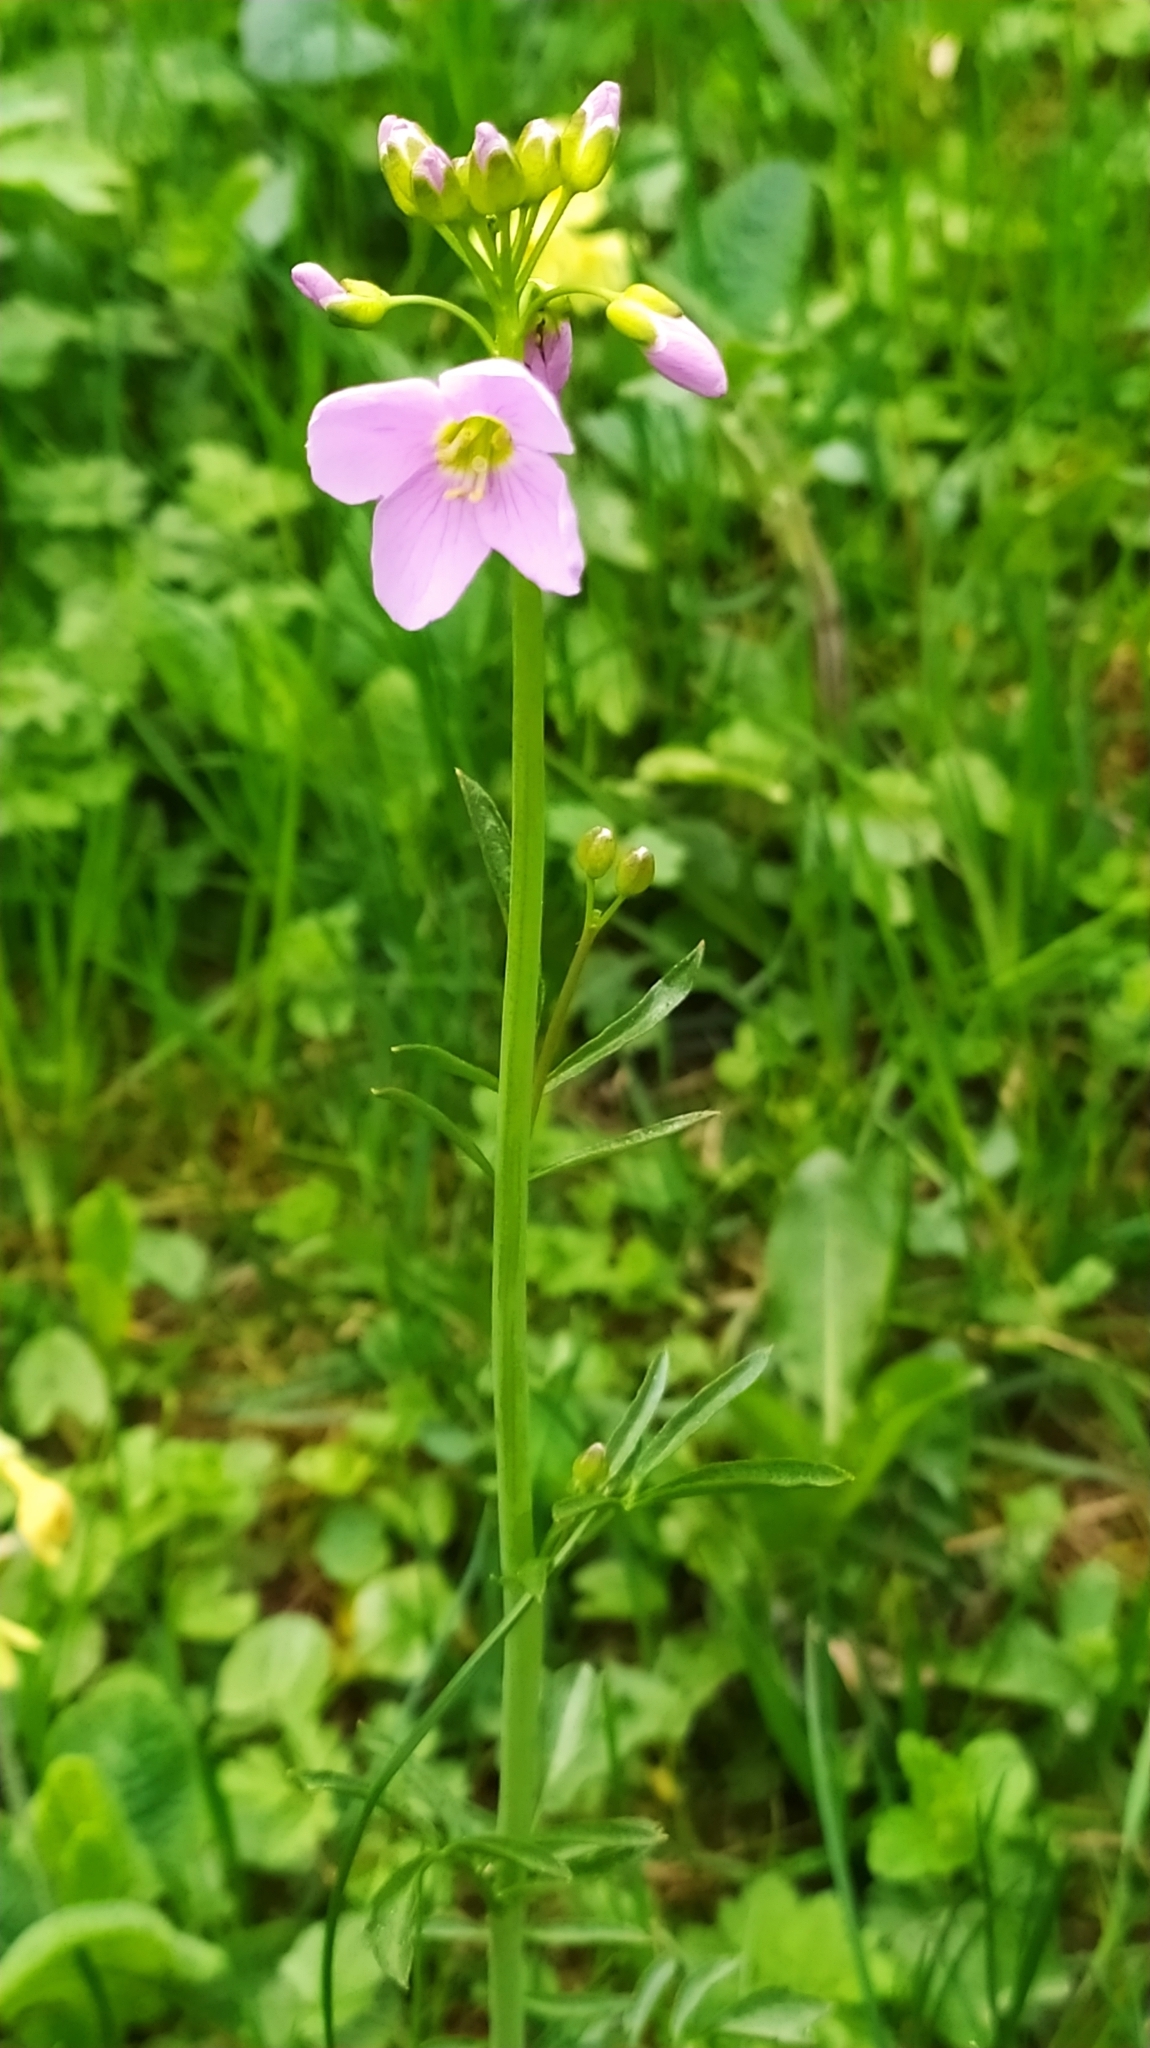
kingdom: Plantae
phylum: Tracheophyta
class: Magnoliopsida
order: Brassicales
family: Brassicaceae
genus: Cardamine
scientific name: Cardamine pratensis
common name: Cuckoo flower
